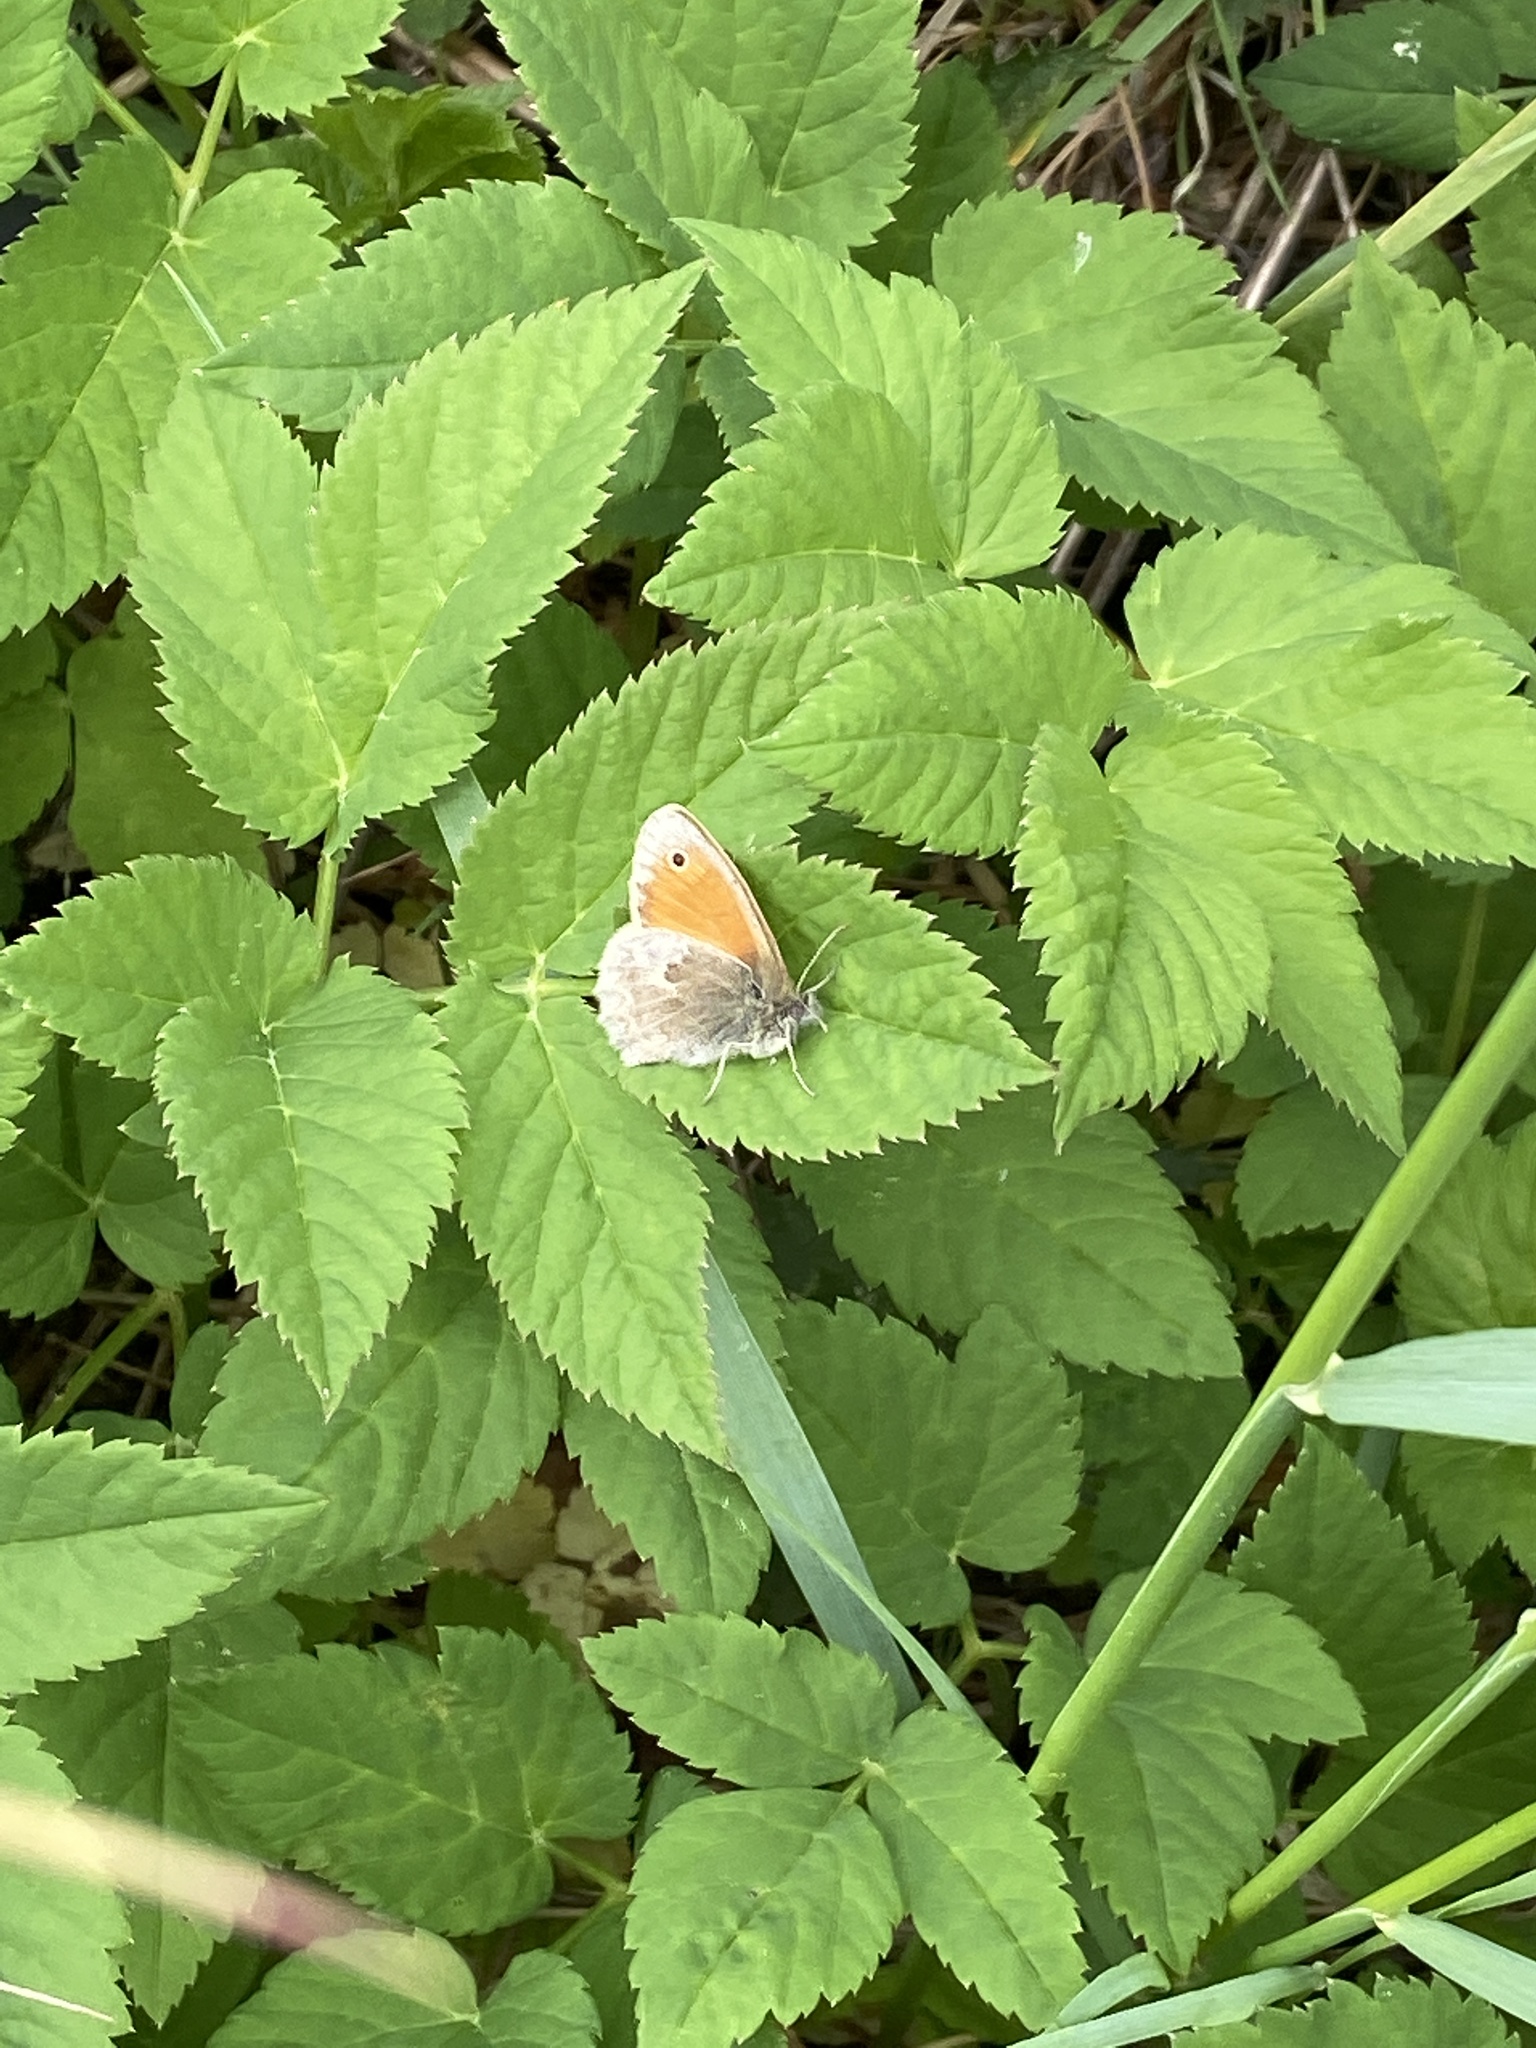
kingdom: Animalia
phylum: Arthropoda
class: Insecta
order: Lepidoptera
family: Nymphalidae
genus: Coenonympha
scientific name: Coenonympha pamphilus
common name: Small heath
